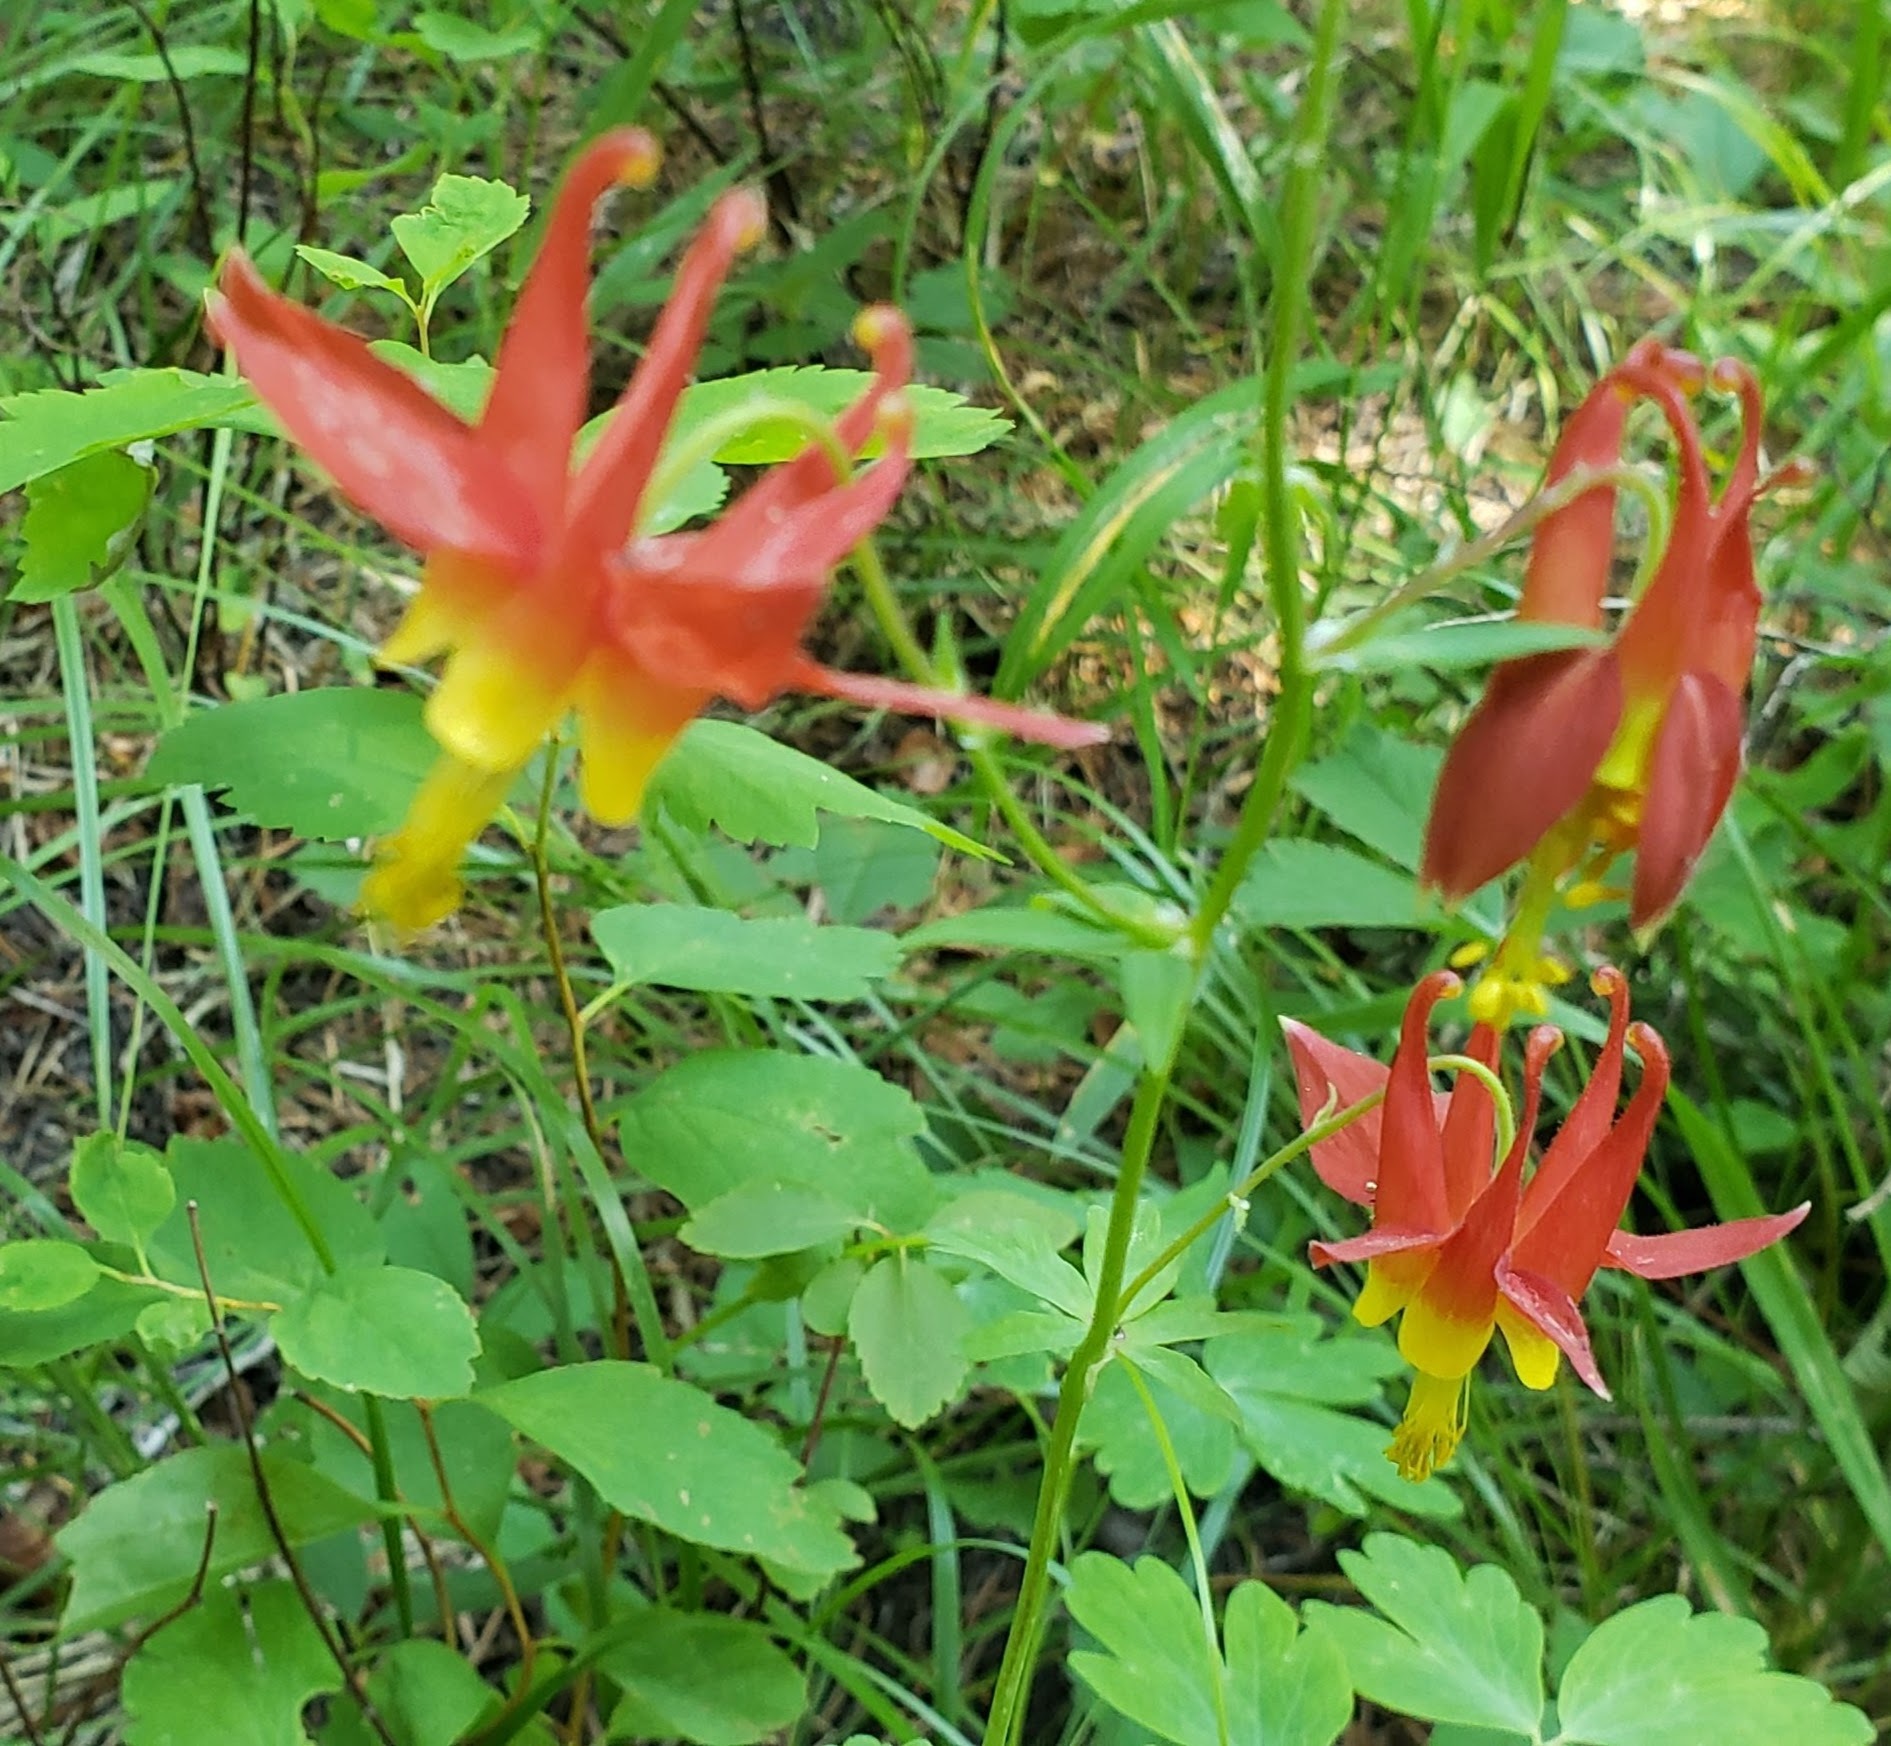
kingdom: Plantae
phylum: Tracheophyta
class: Magnoliopsida
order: Ranunculales
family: Ranunculaceae
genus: Aquilegia
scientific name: Aquilegia formosa
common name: Sitka columbine
